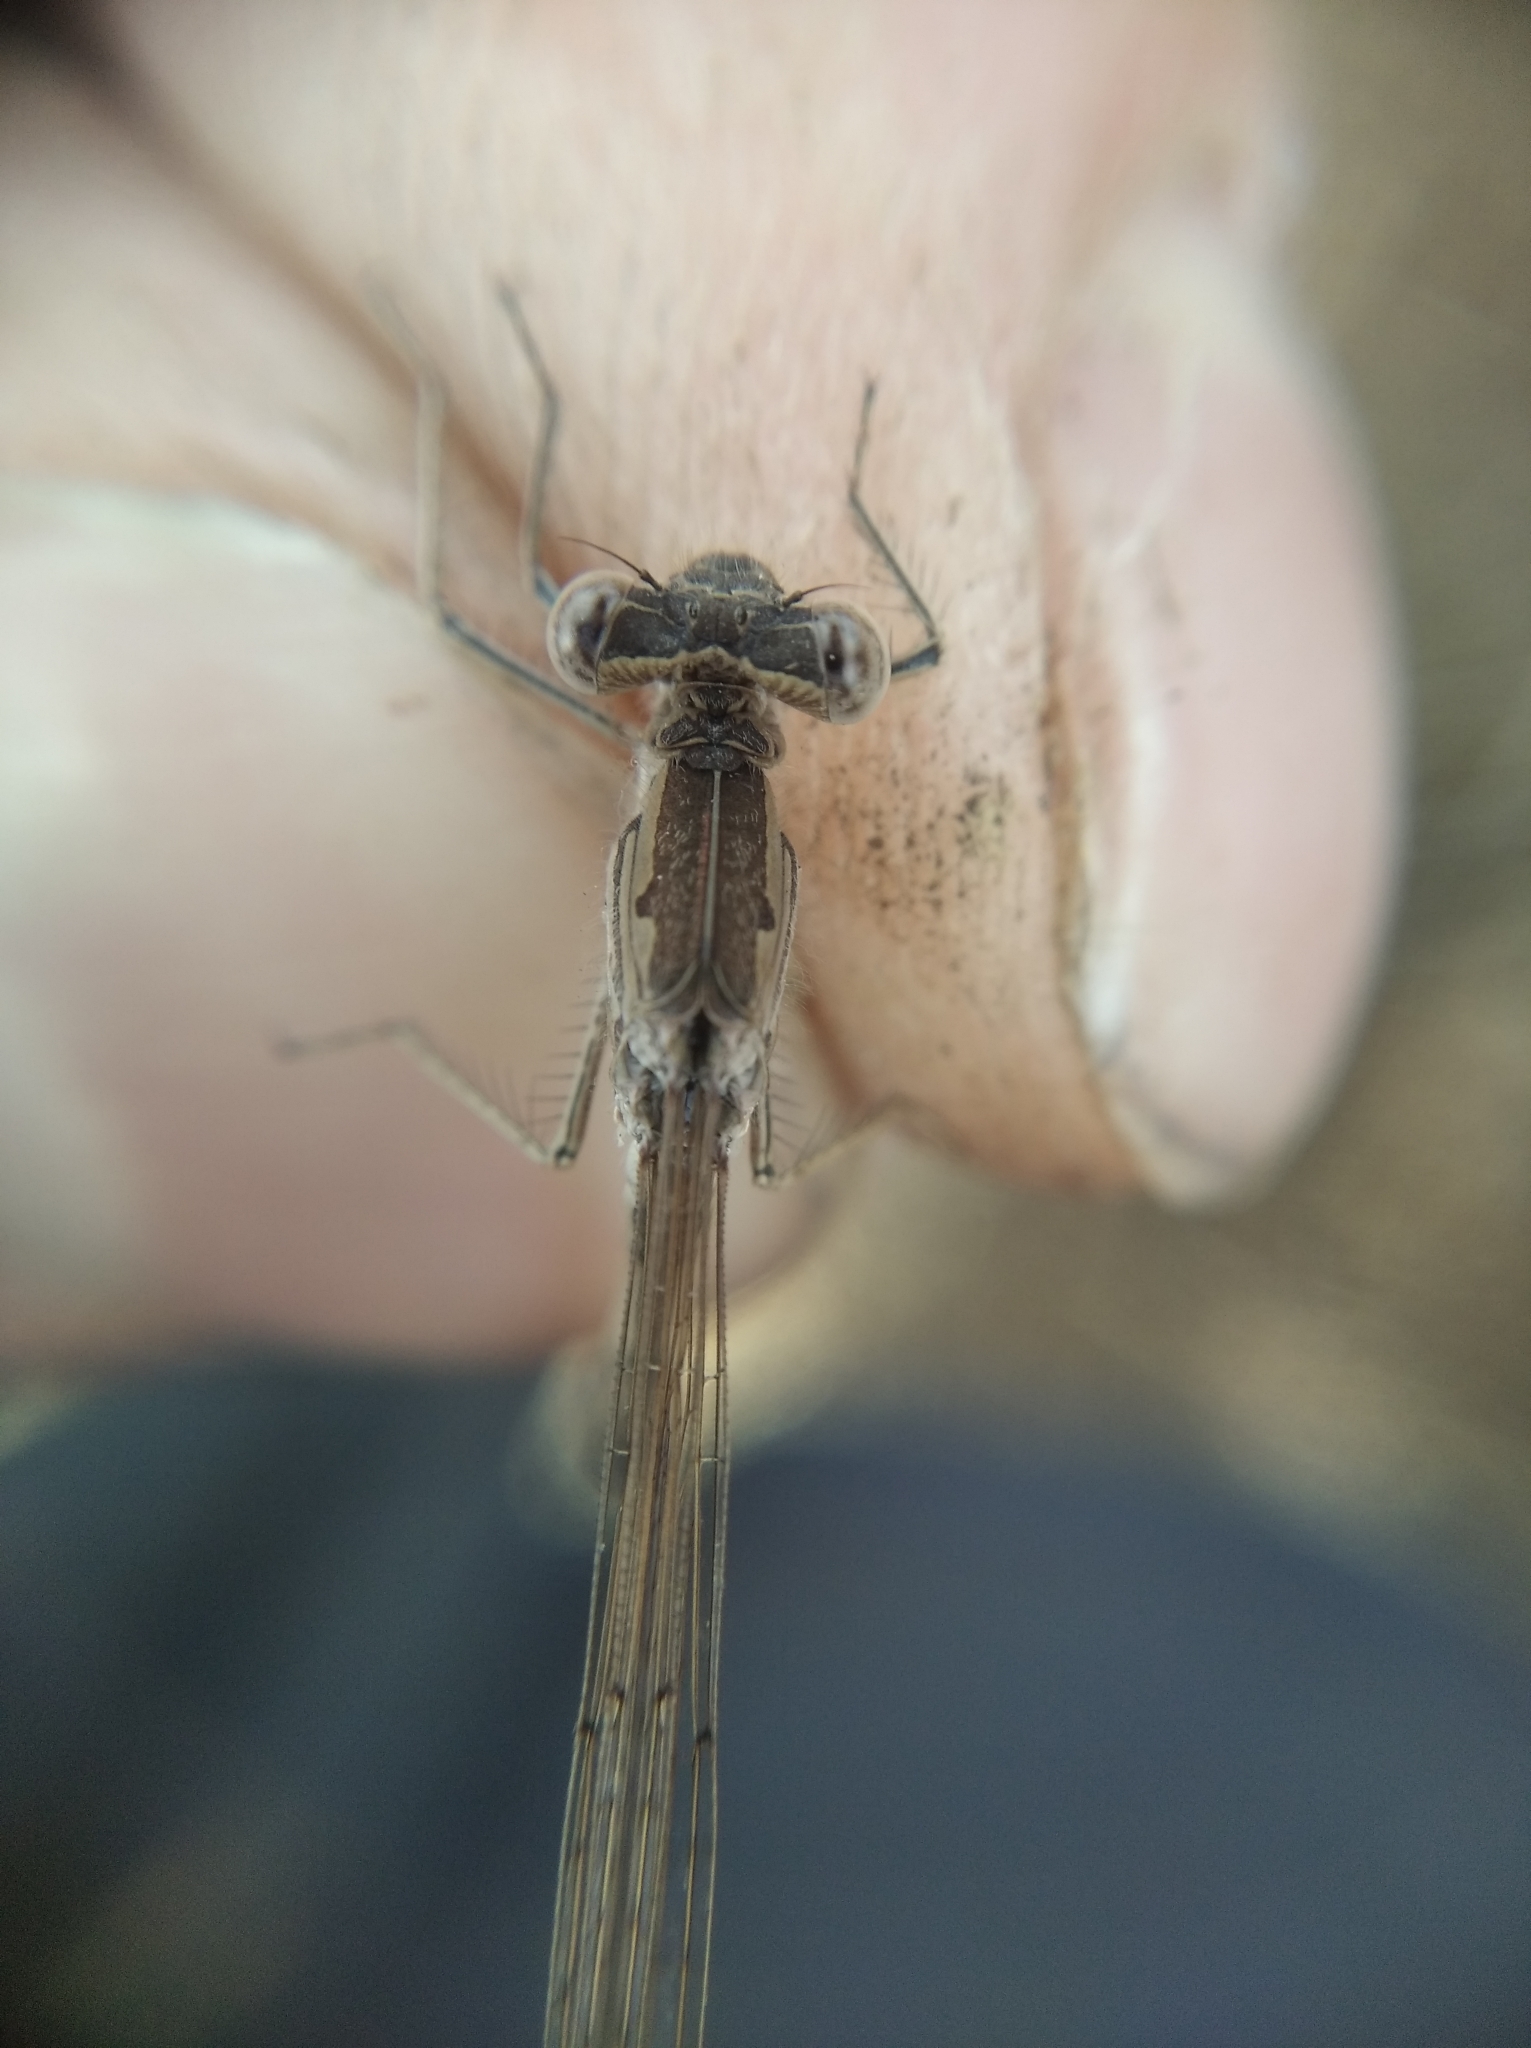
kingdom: Animalia
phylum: Arthropoda
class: Insecta
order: Odonata
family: Lestidae
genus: Sympecma
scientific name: Sympecma paedisca
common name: Siberian winter damsel
